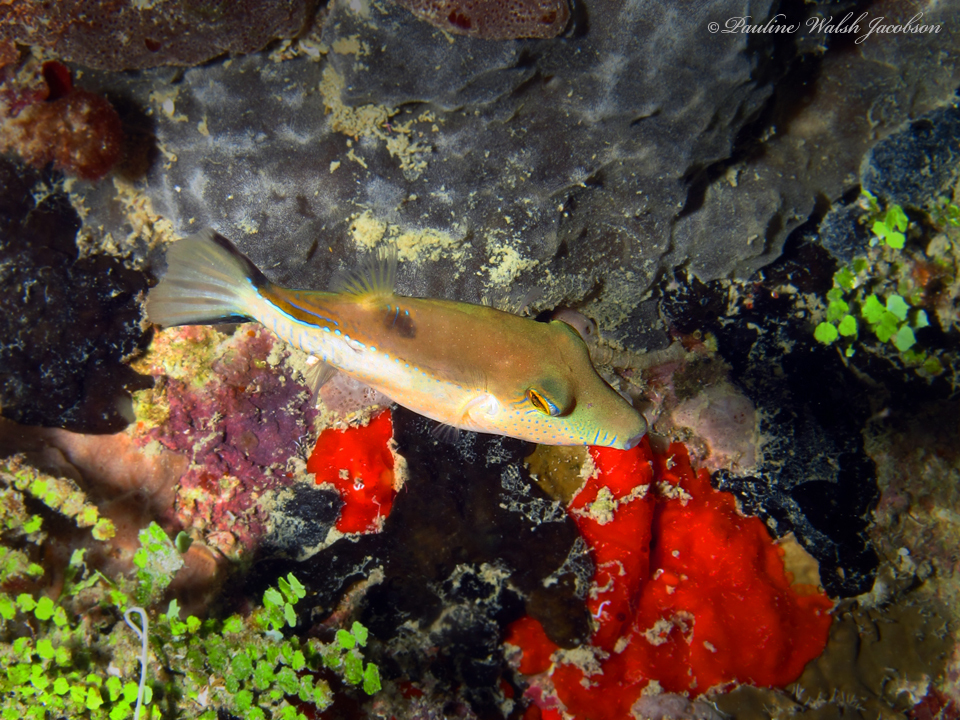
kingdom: Animalia
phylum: Chordata
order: Tetraodontiformes
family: Tetraodontidae
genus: Canthigaster
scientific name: Canthigaster rostrata
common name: Caribbean sharpnose-puffer
